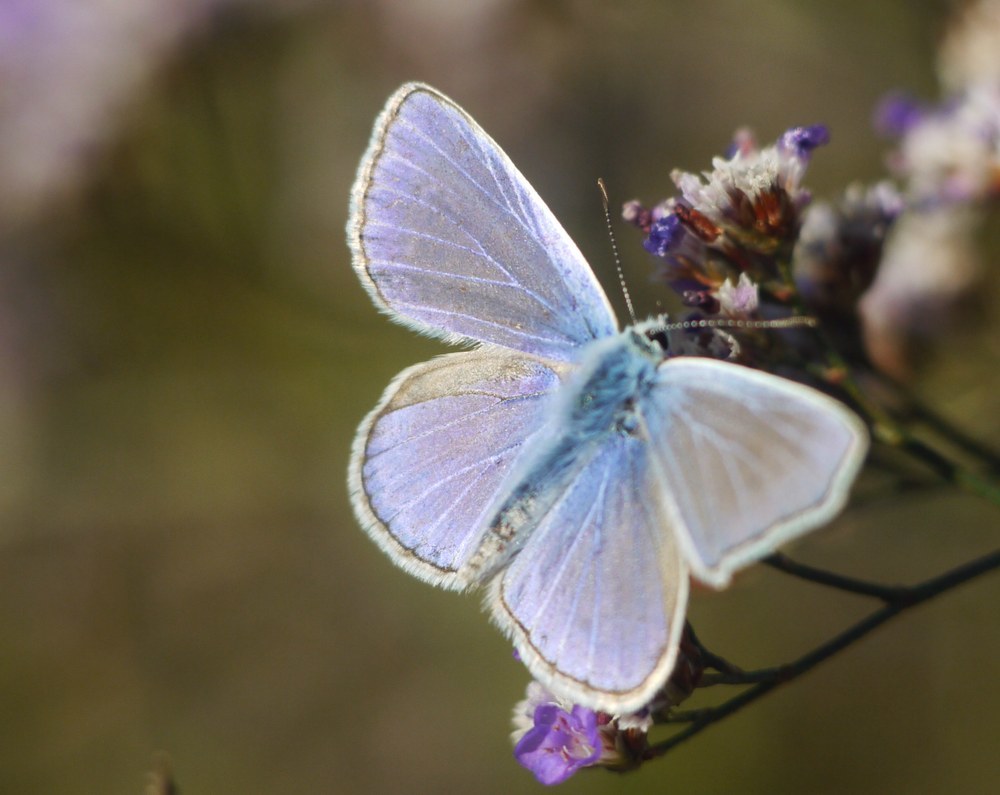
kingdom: Animalia
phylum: Arthropoda
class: Insecta
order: Lepidoptera
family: Lycaenidae
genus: Polyommatus
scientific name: Polyommatus icarus
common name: Common blue
